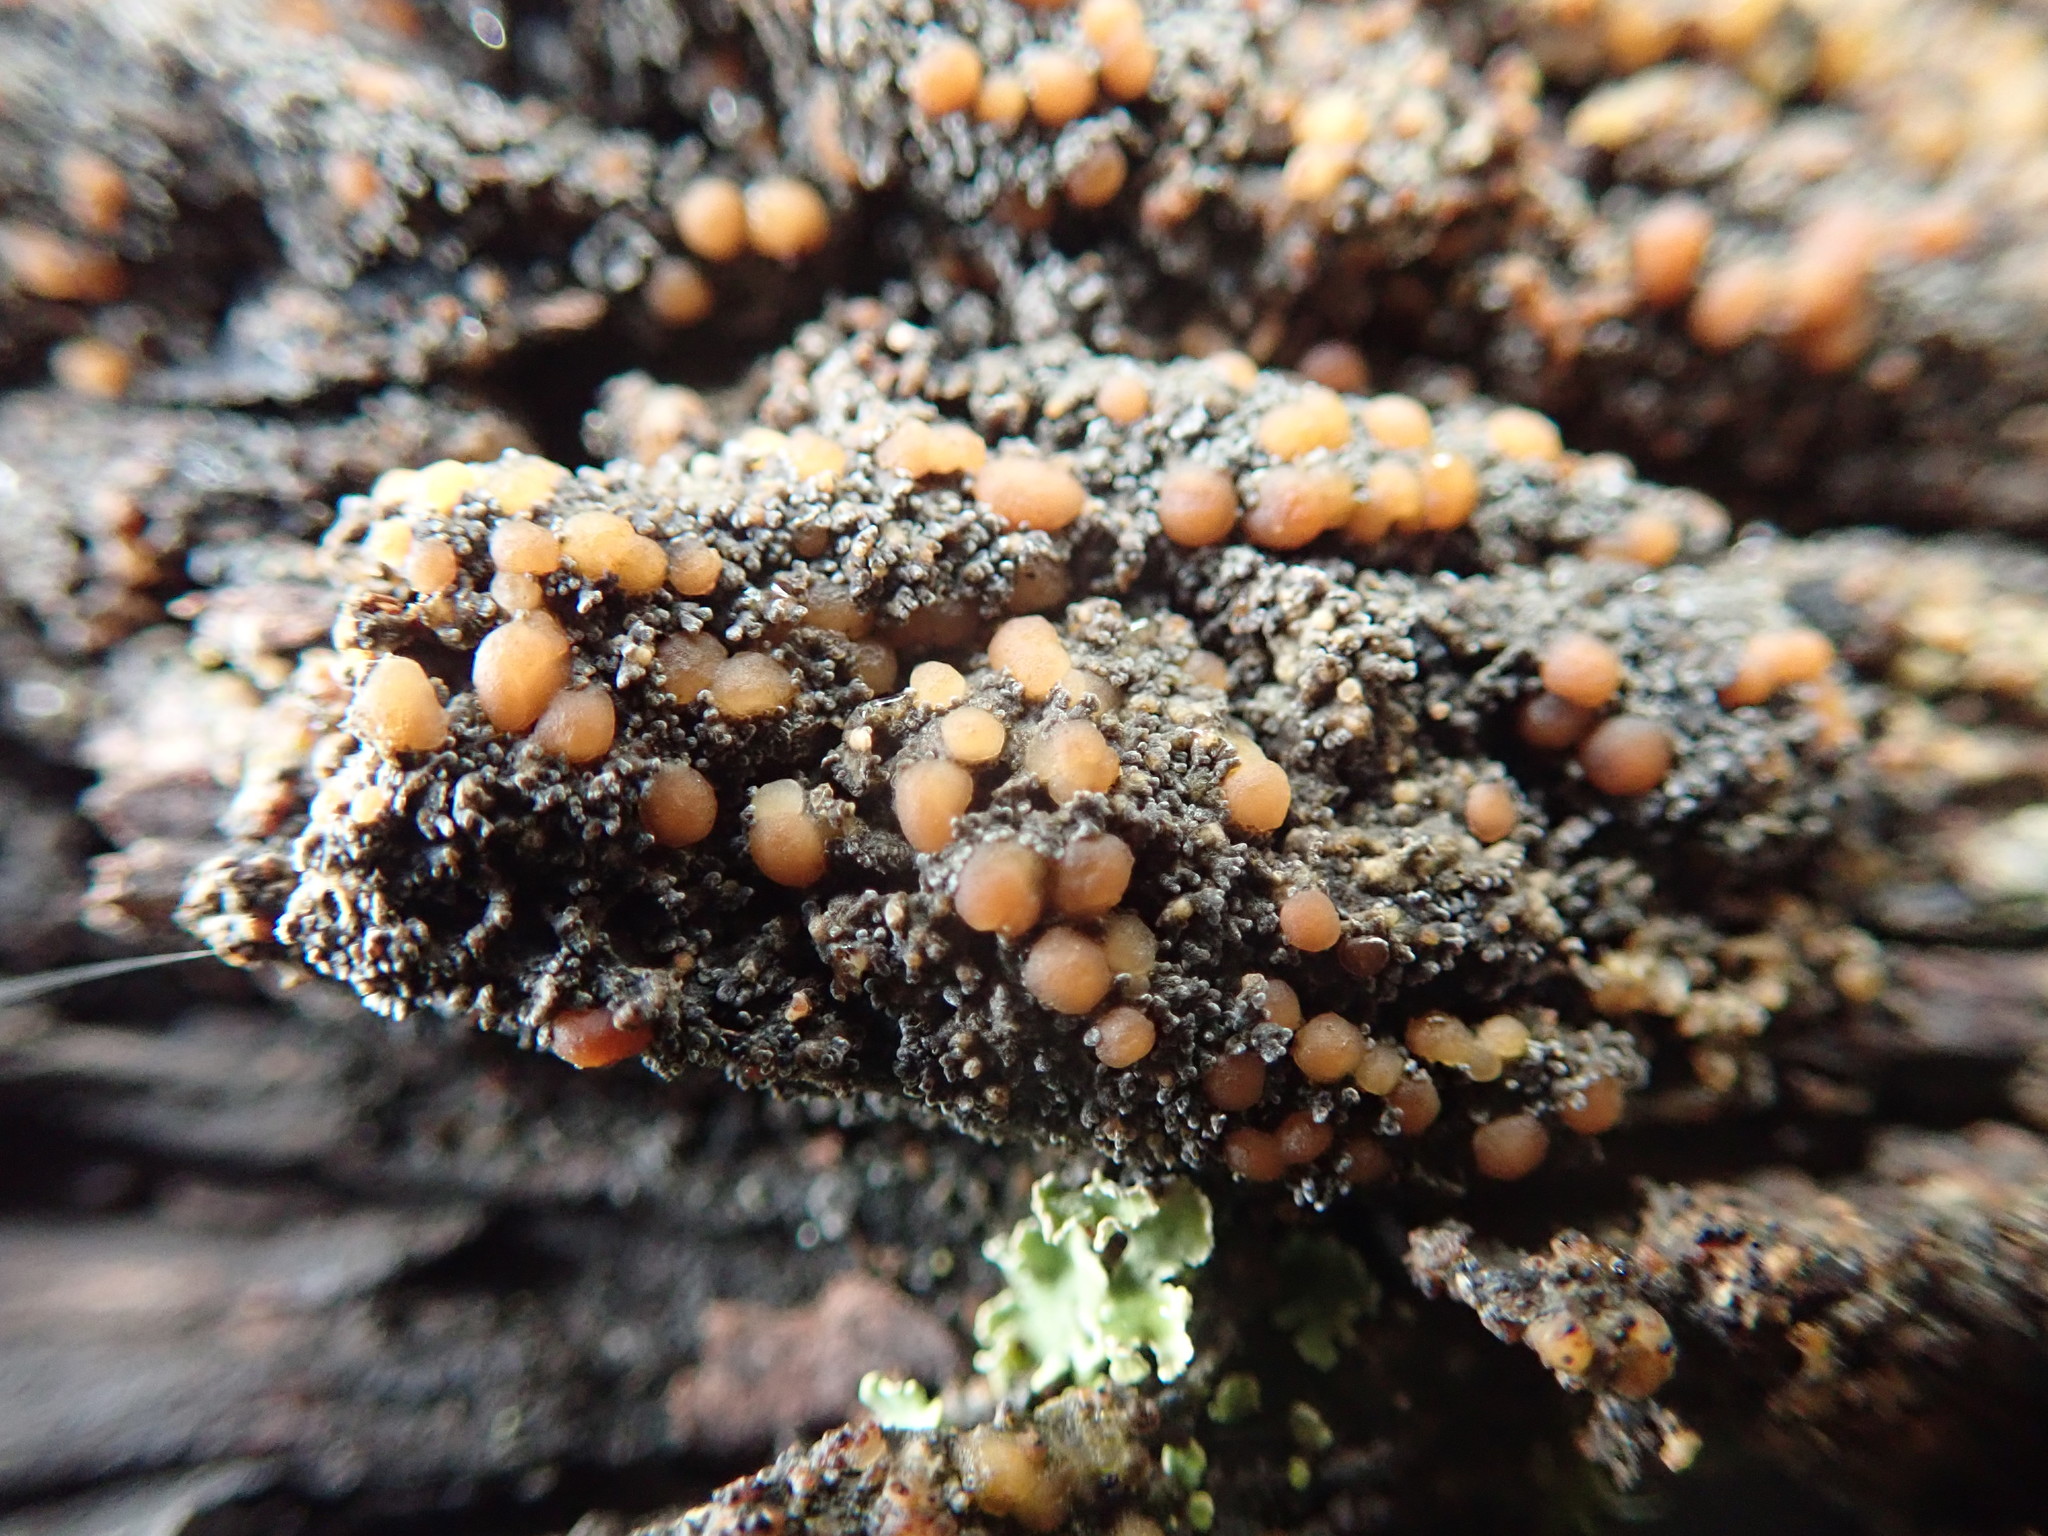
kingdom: Fungi
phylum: Ascomycota
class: Lecanoromycetes
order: Peltigerales
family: Vahliellaceae
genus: Vahliella
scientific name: Vahliella saubinetii
